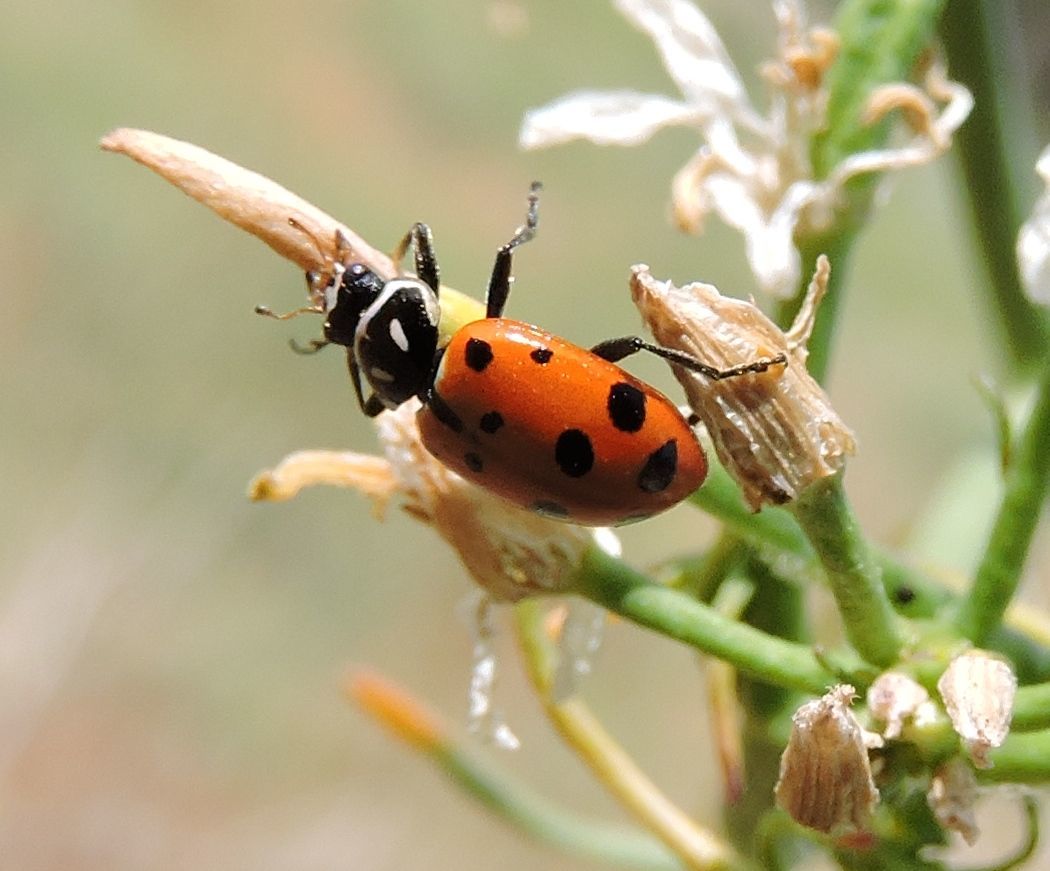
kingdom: Animalia
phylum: Arthropoda
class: Insecta
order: Coleoptera
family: Coccinellidae
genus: Hippodamia
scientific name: Hippodamia convergens
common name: Convergent lady beetle
